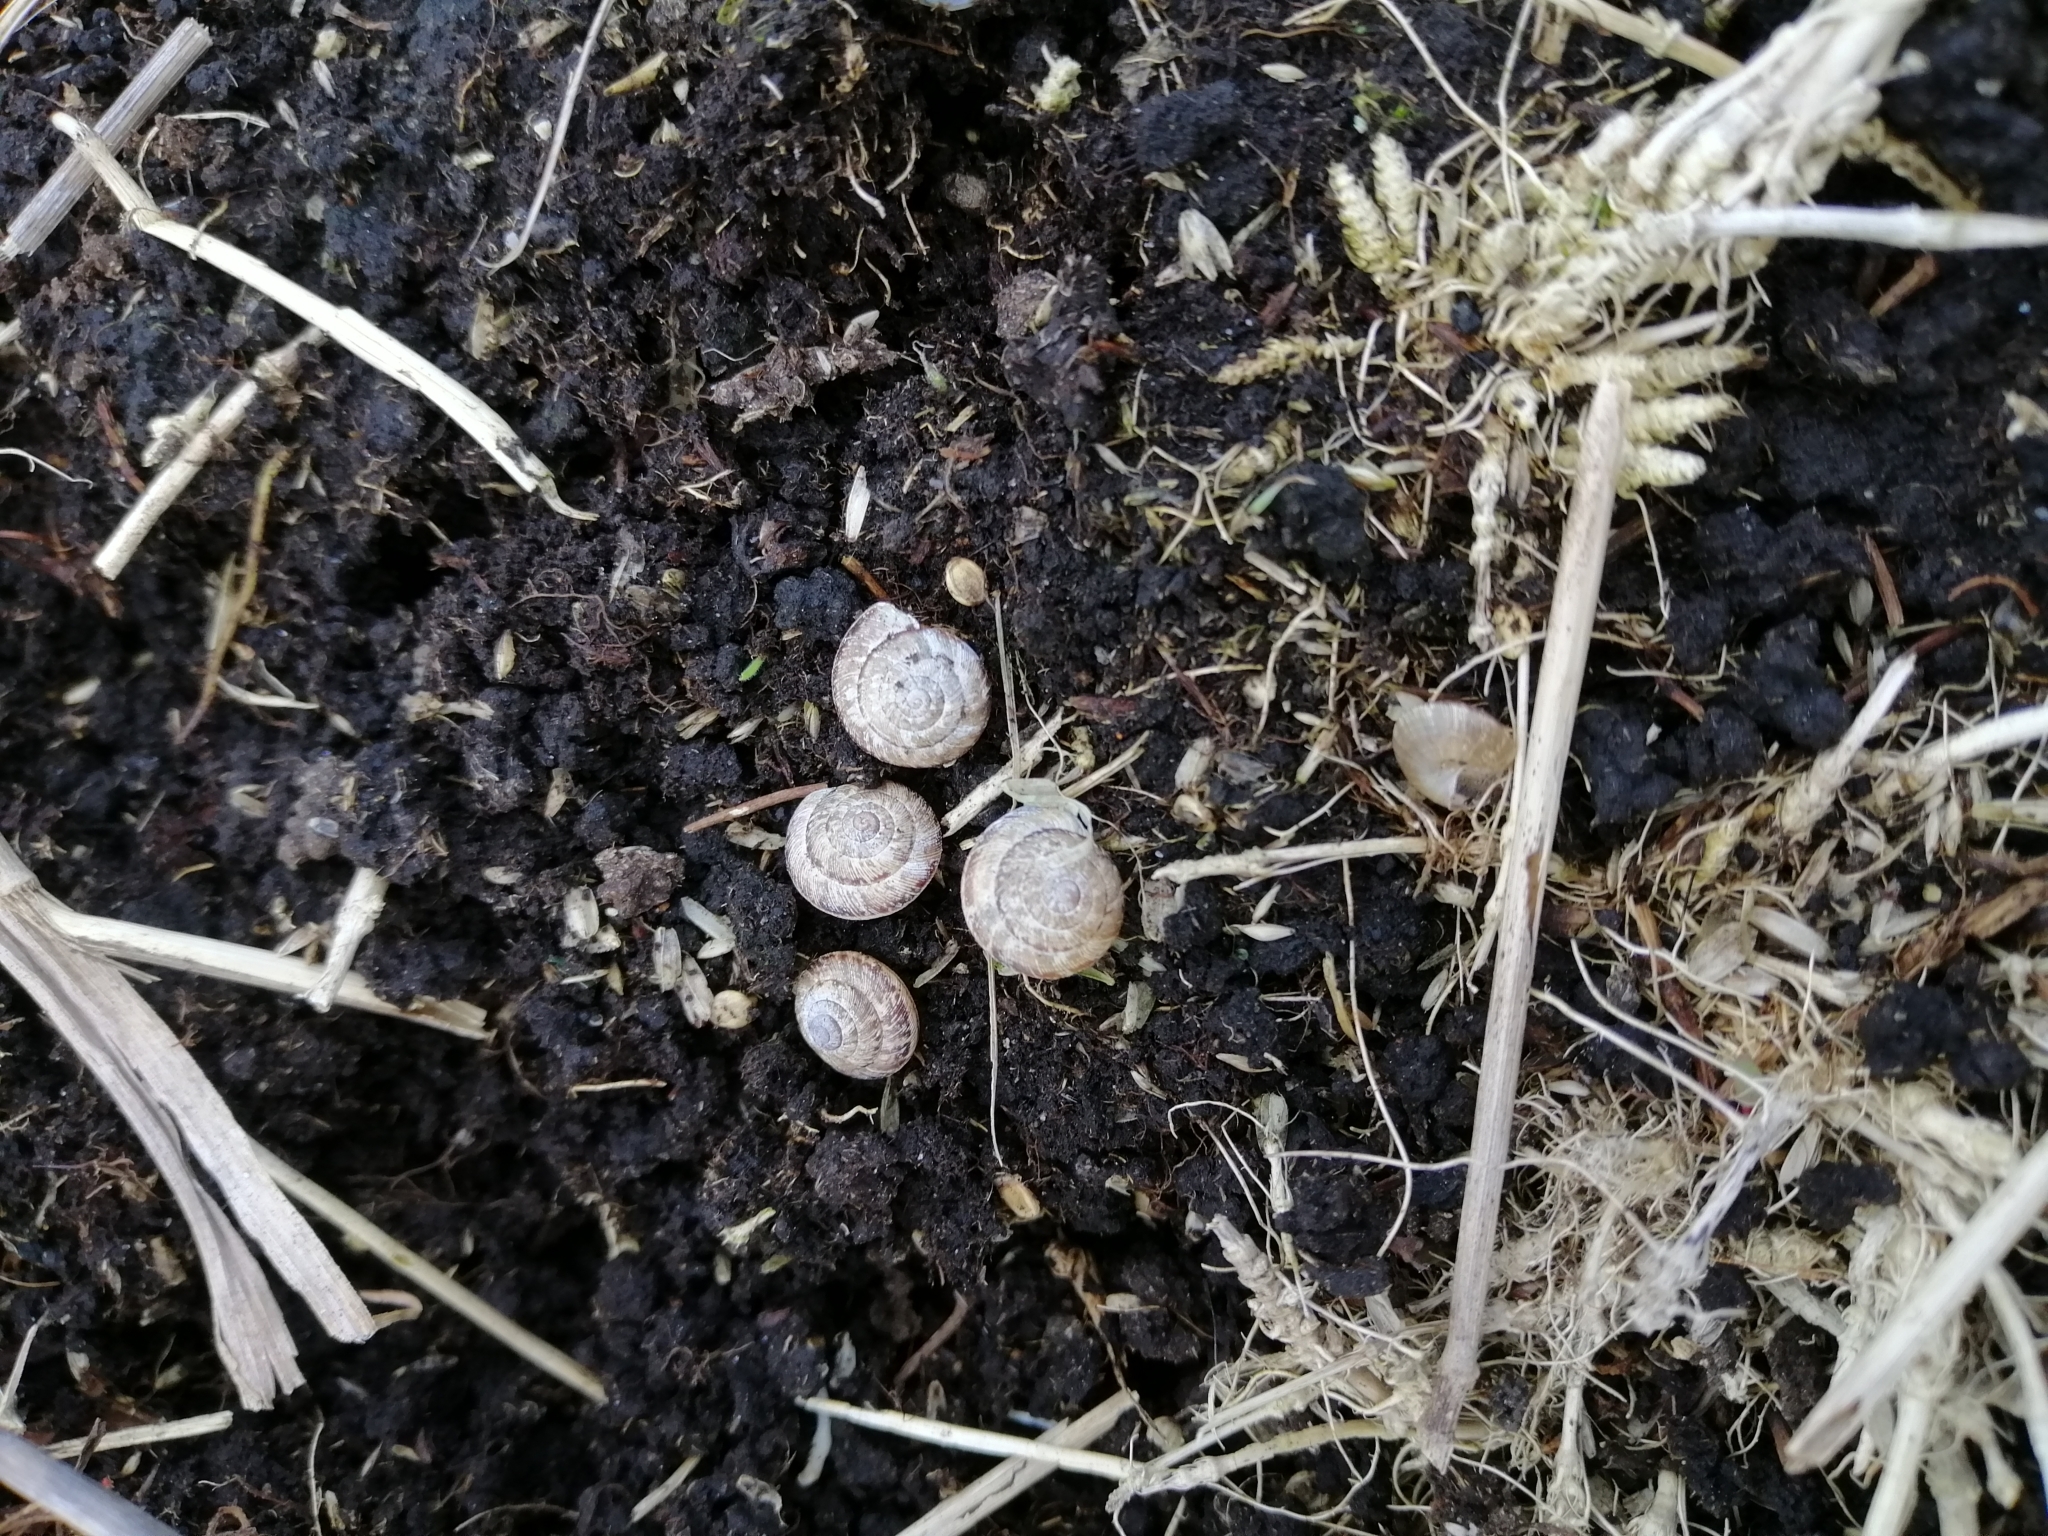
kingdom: Animalia
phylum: Mollusca
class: Gastropoda
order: Stylommatophora
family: Geomitridae
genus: Xeroplexa
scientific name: Xeroplexa intersecta
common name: Wrinkled snail
